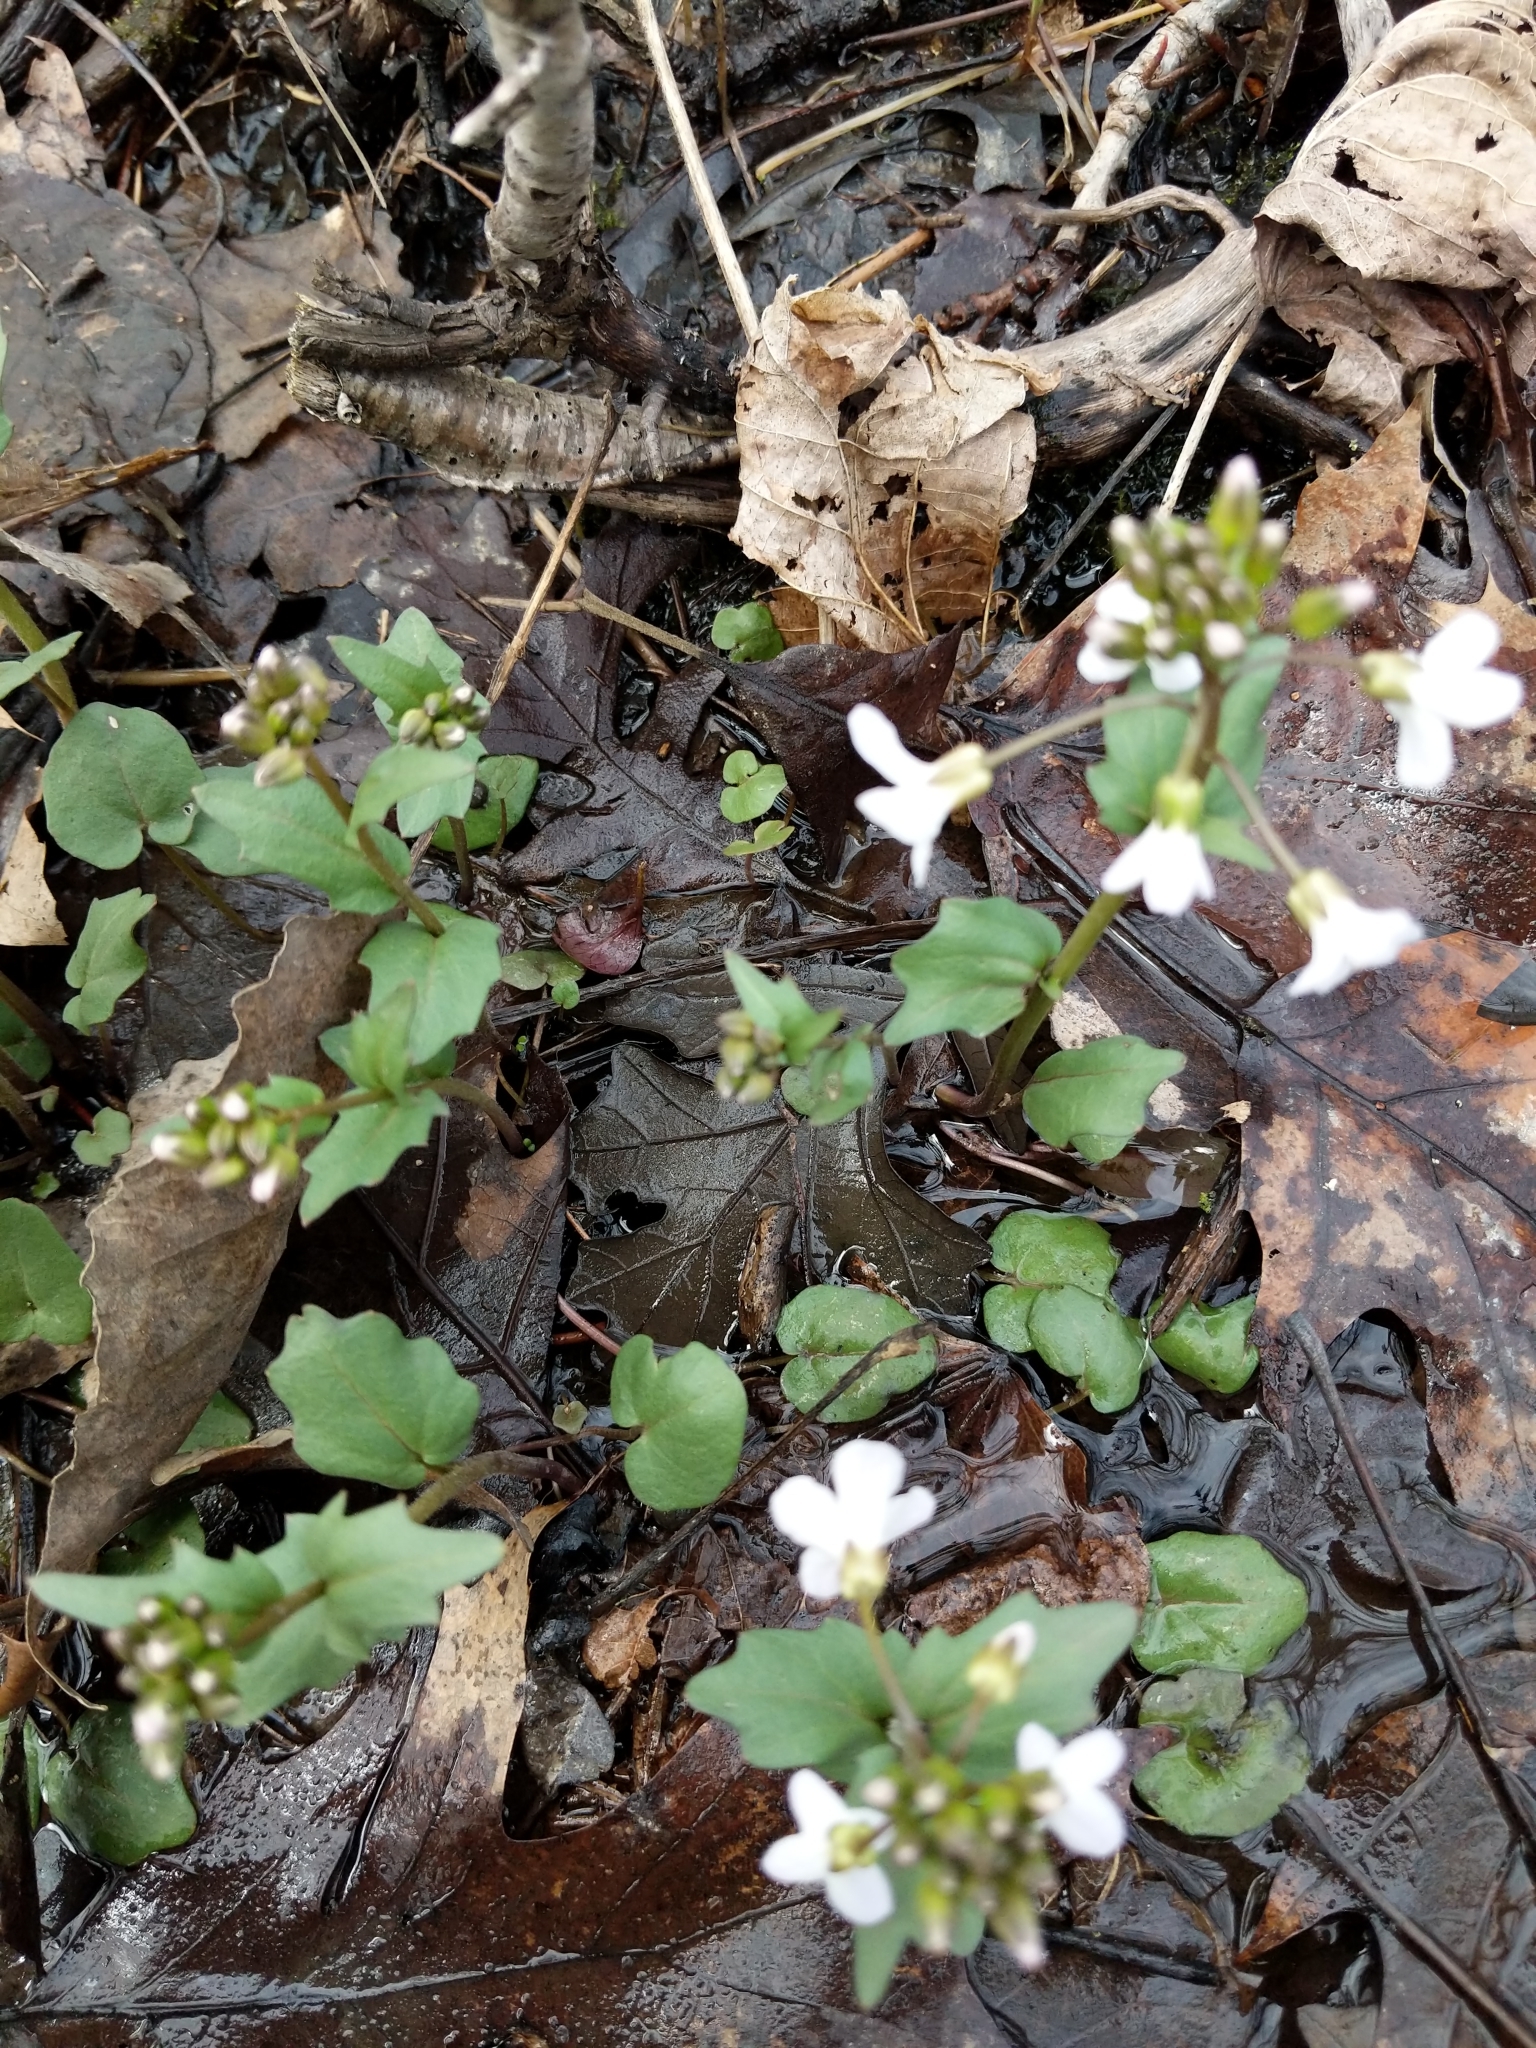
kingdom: Plantae
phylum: Tracheophyta
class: Magnoliopsida
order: Brassicales
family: Brassicaceae
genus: Cardamine
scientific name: Cardamine bulbosa
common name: Spring cress
